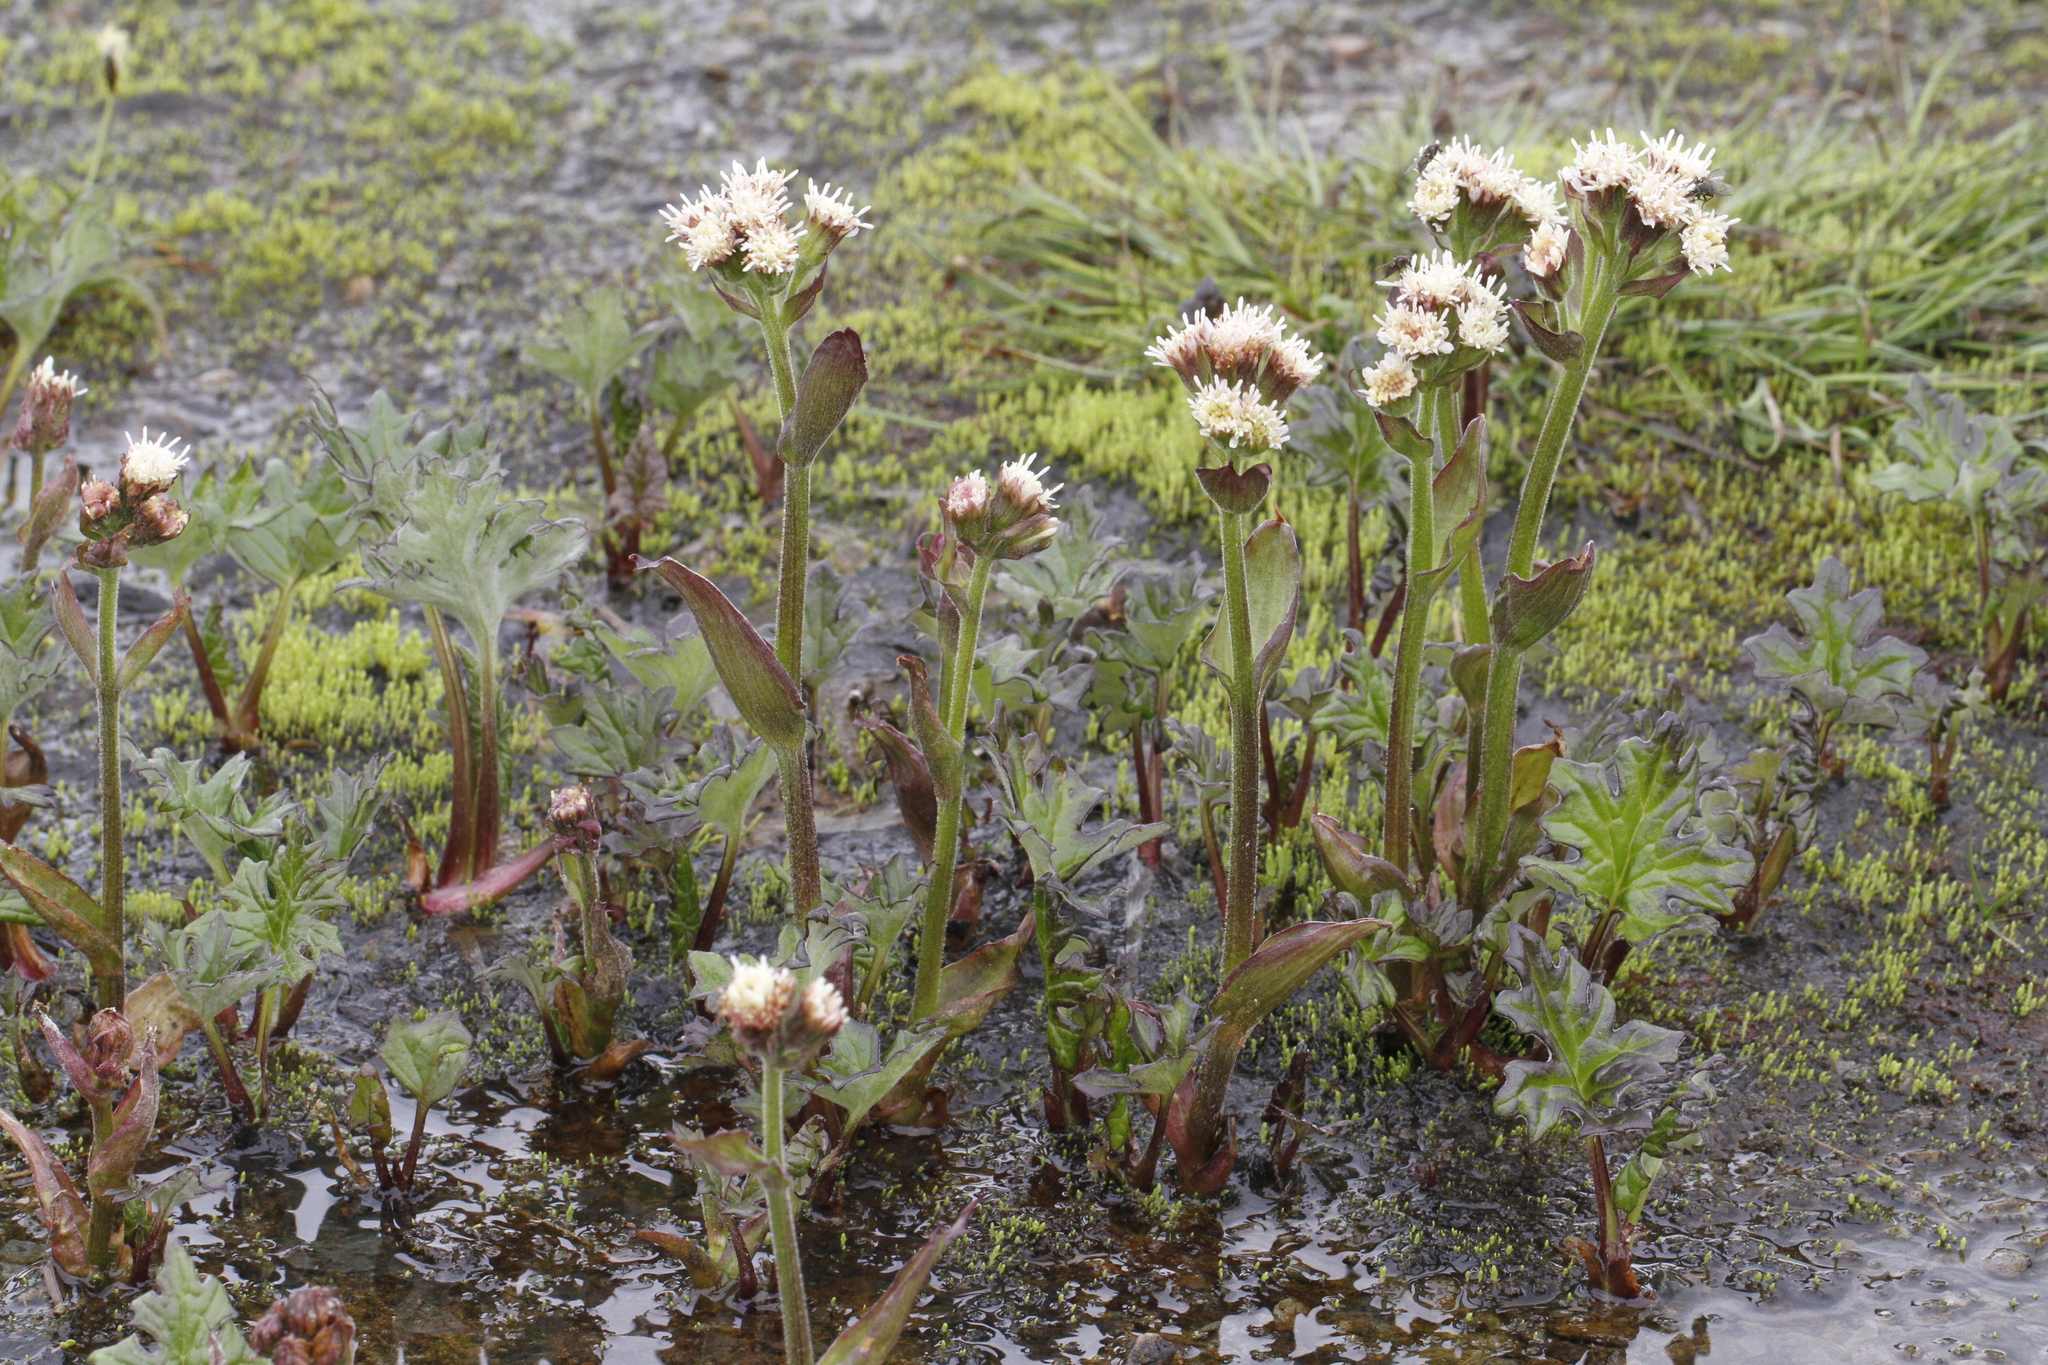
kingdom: Plantae
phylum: Tracheophyta
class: Magnoliopsida
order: Asterales
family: Asteraceae
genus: Petasites
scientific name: Petasites frigidus
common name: Arctic butterbur
